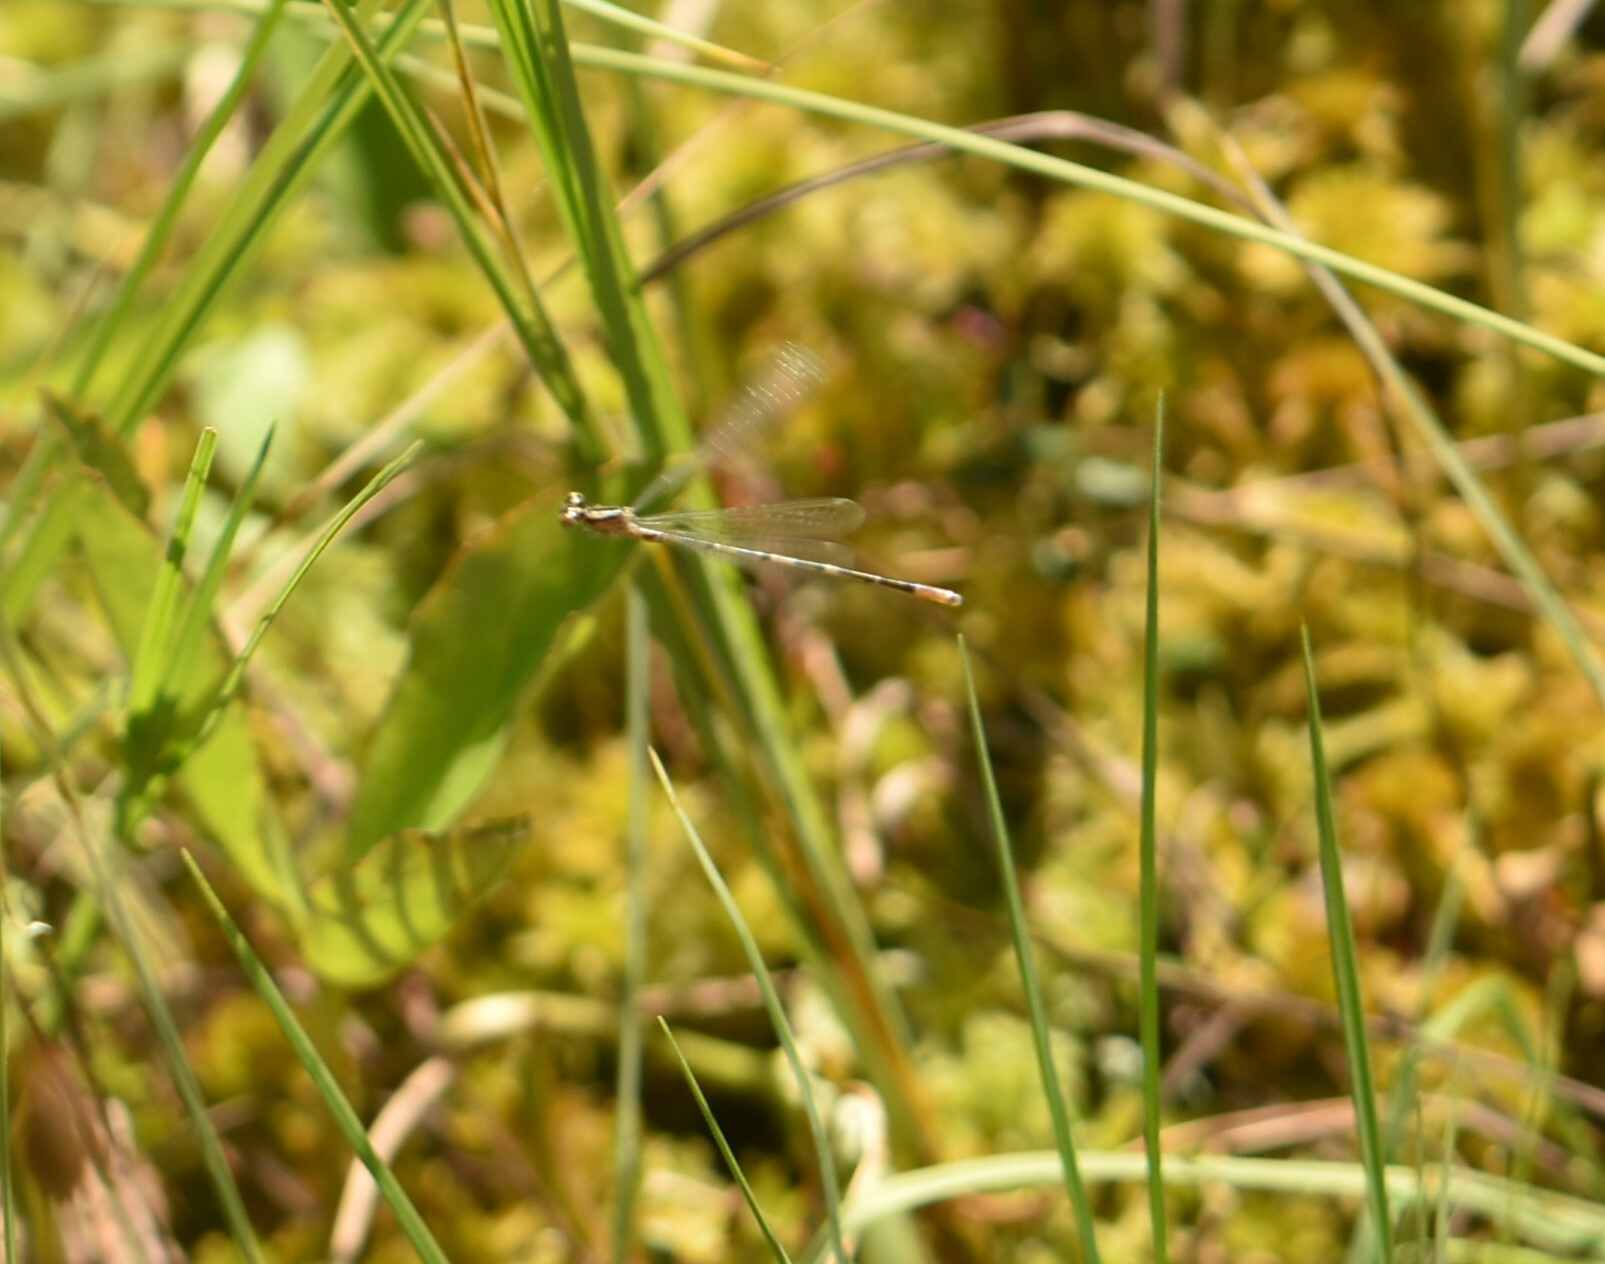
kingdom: Animalia
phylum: Arthropoda
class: Insecta
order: Odonata
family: Coenagrionidae
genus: Coenagrion
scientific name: Coenagrion johanssoni
